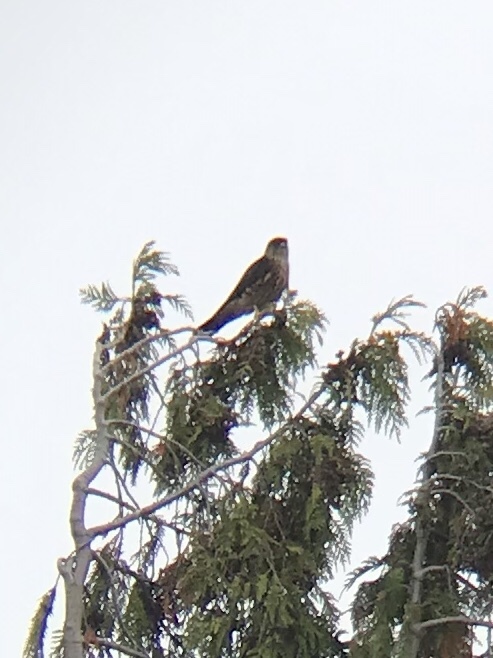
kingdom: Animalia
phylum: Chordata
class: Aves
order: Falconiformes
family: Falconidae
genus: Falco
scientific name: Falco columbarius
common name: Merlin
